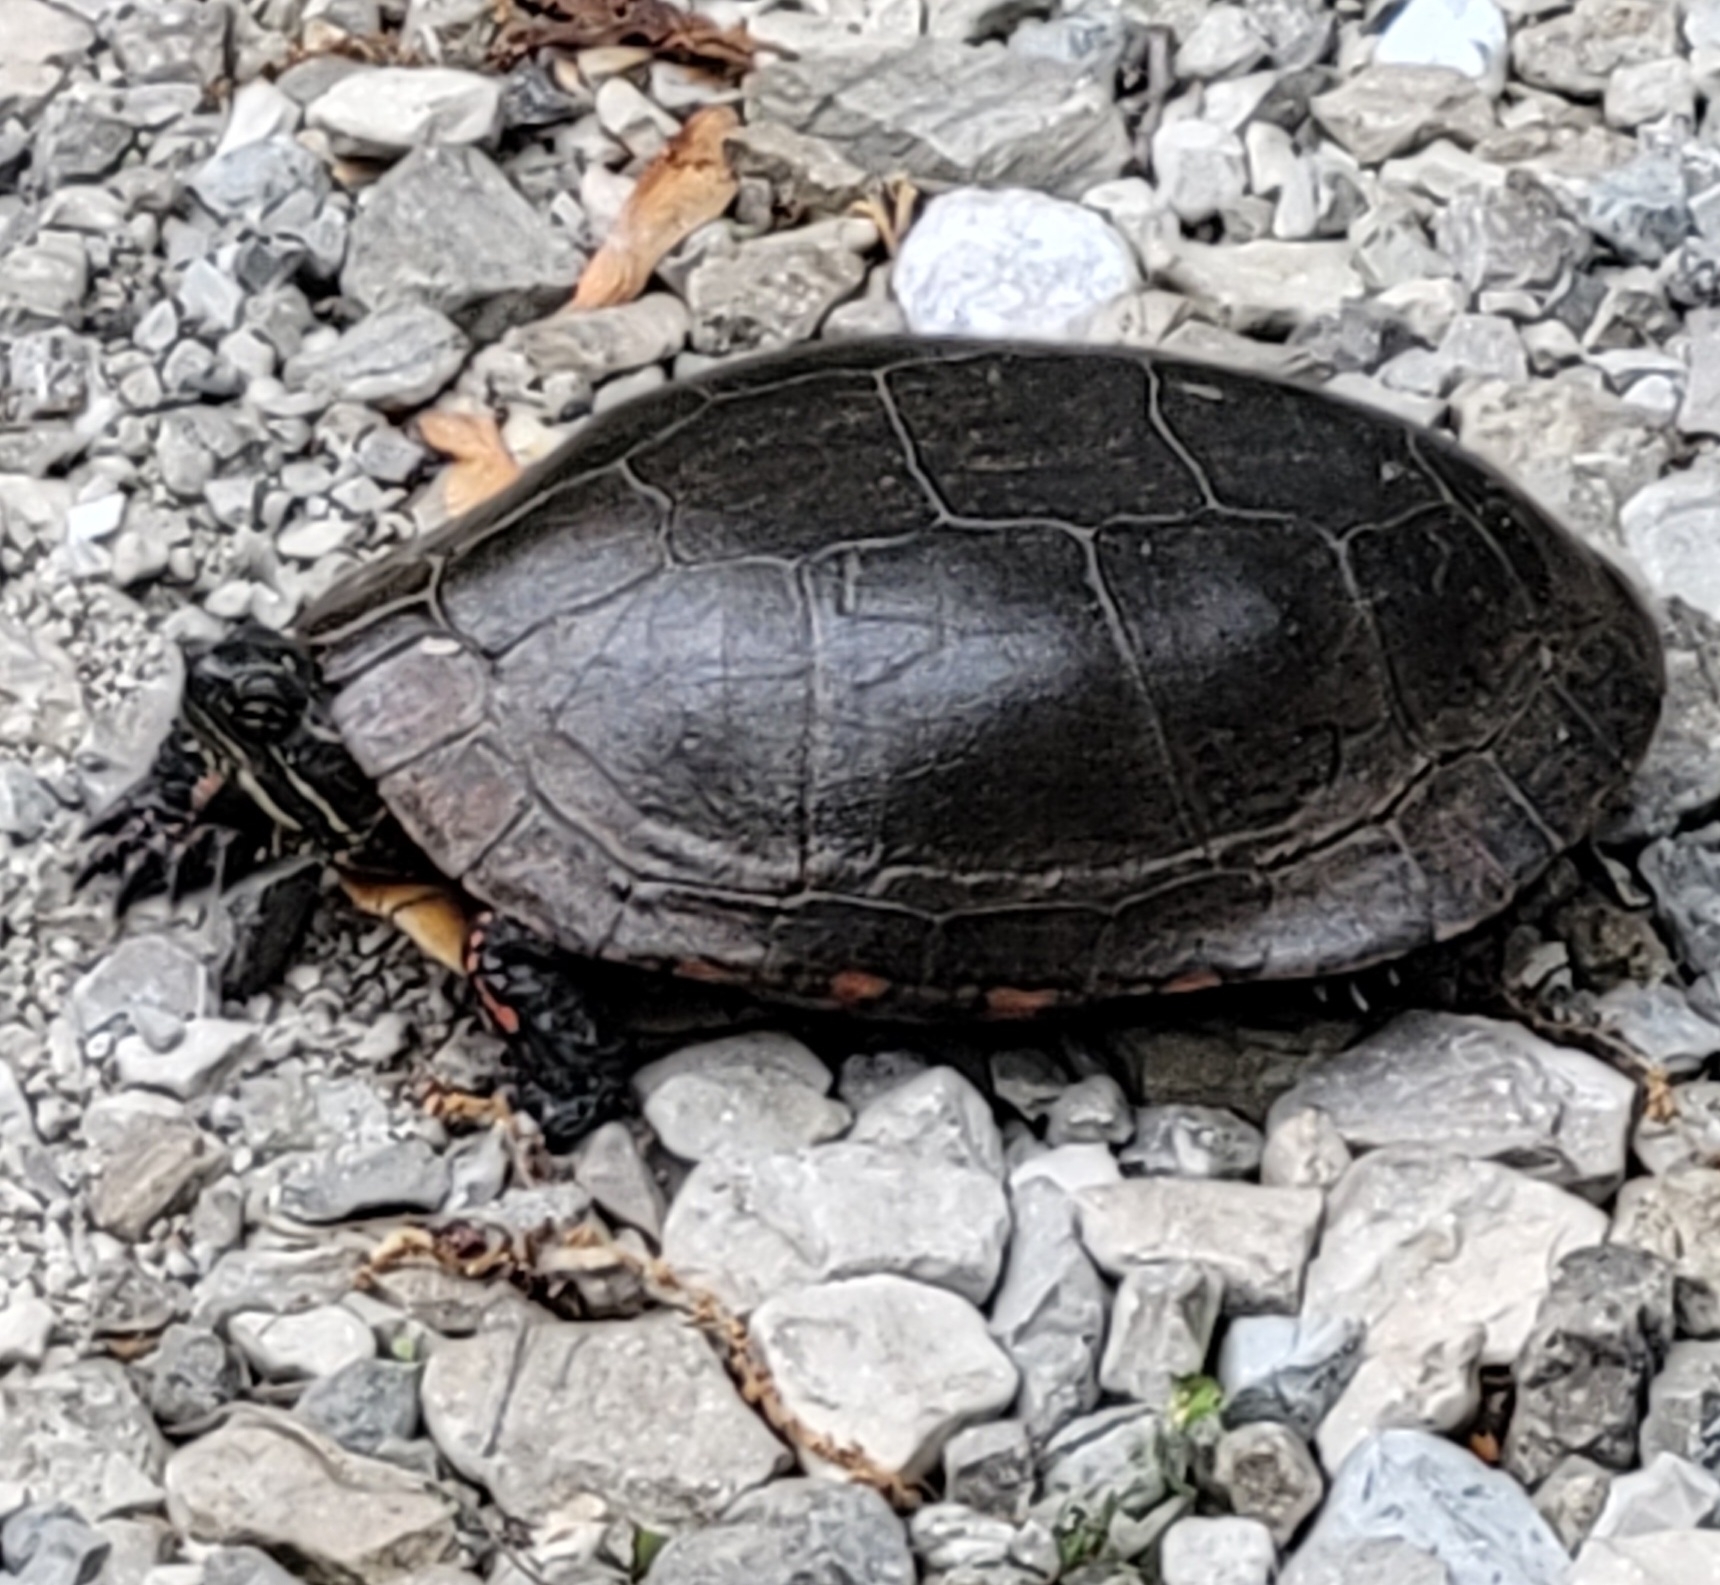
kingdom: Animalia
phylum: Chordata
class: Testudines
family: Emydidae
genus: Chrysemys
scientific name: Chrysemys picta
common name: Painted turtle
